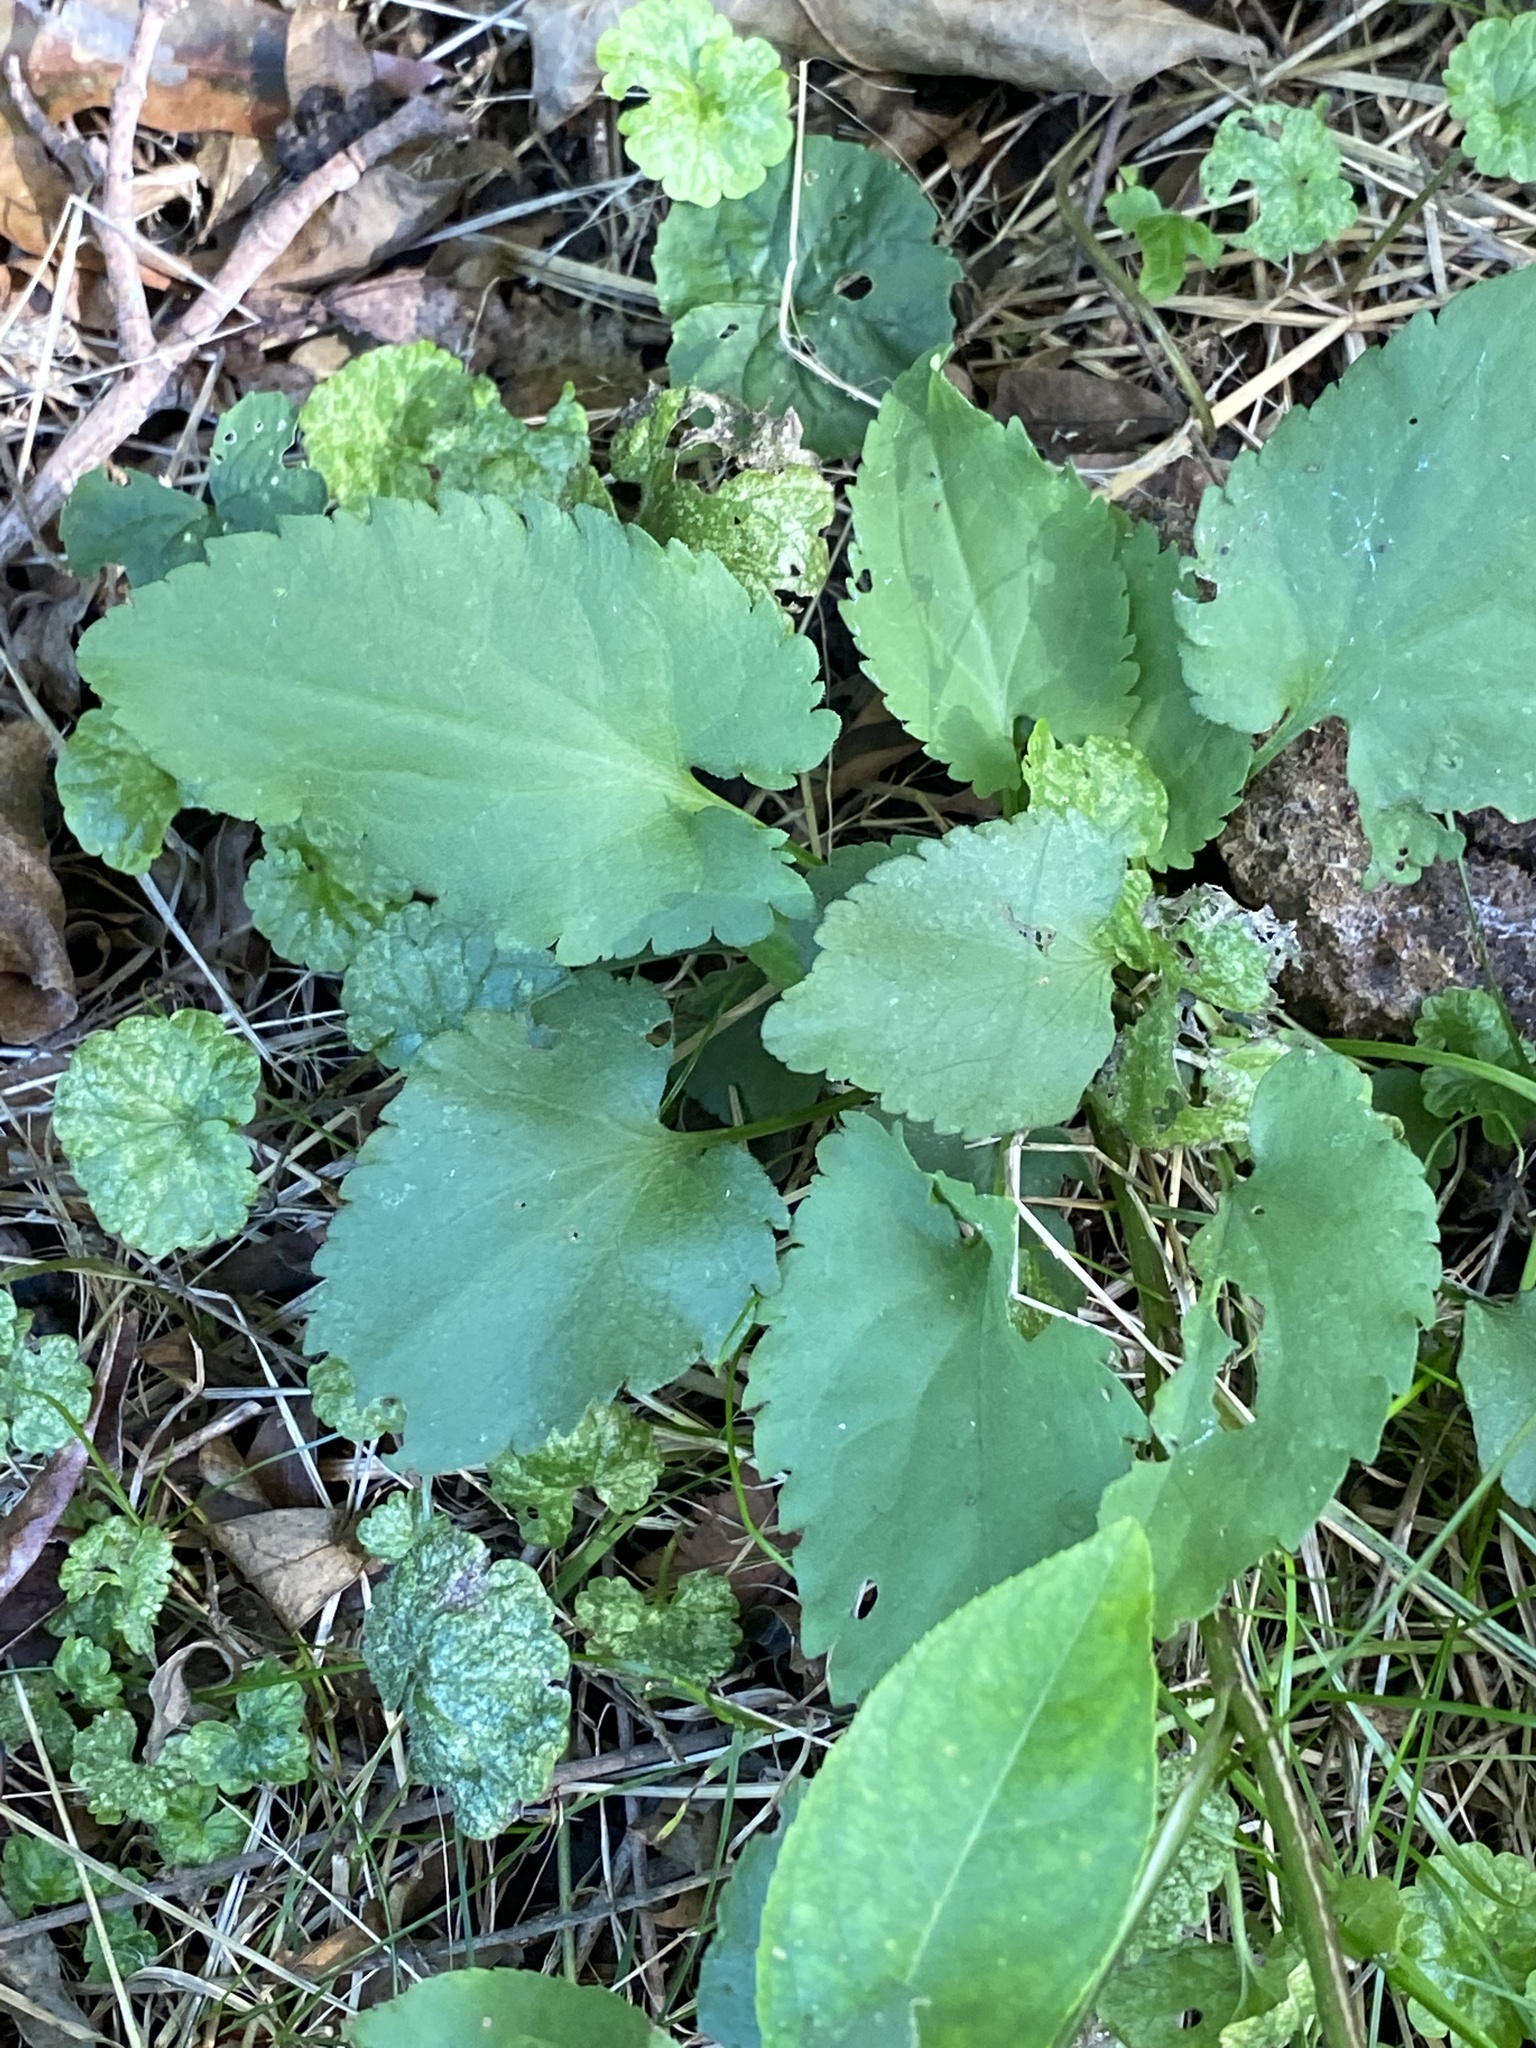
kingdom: Plantae
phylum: Tracheophyta
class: Magnoliopsida
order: Asterales
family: Asteraceae
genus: Symphyotrichum
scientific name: Symphyotrichum cordifolium
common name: Beeweed
